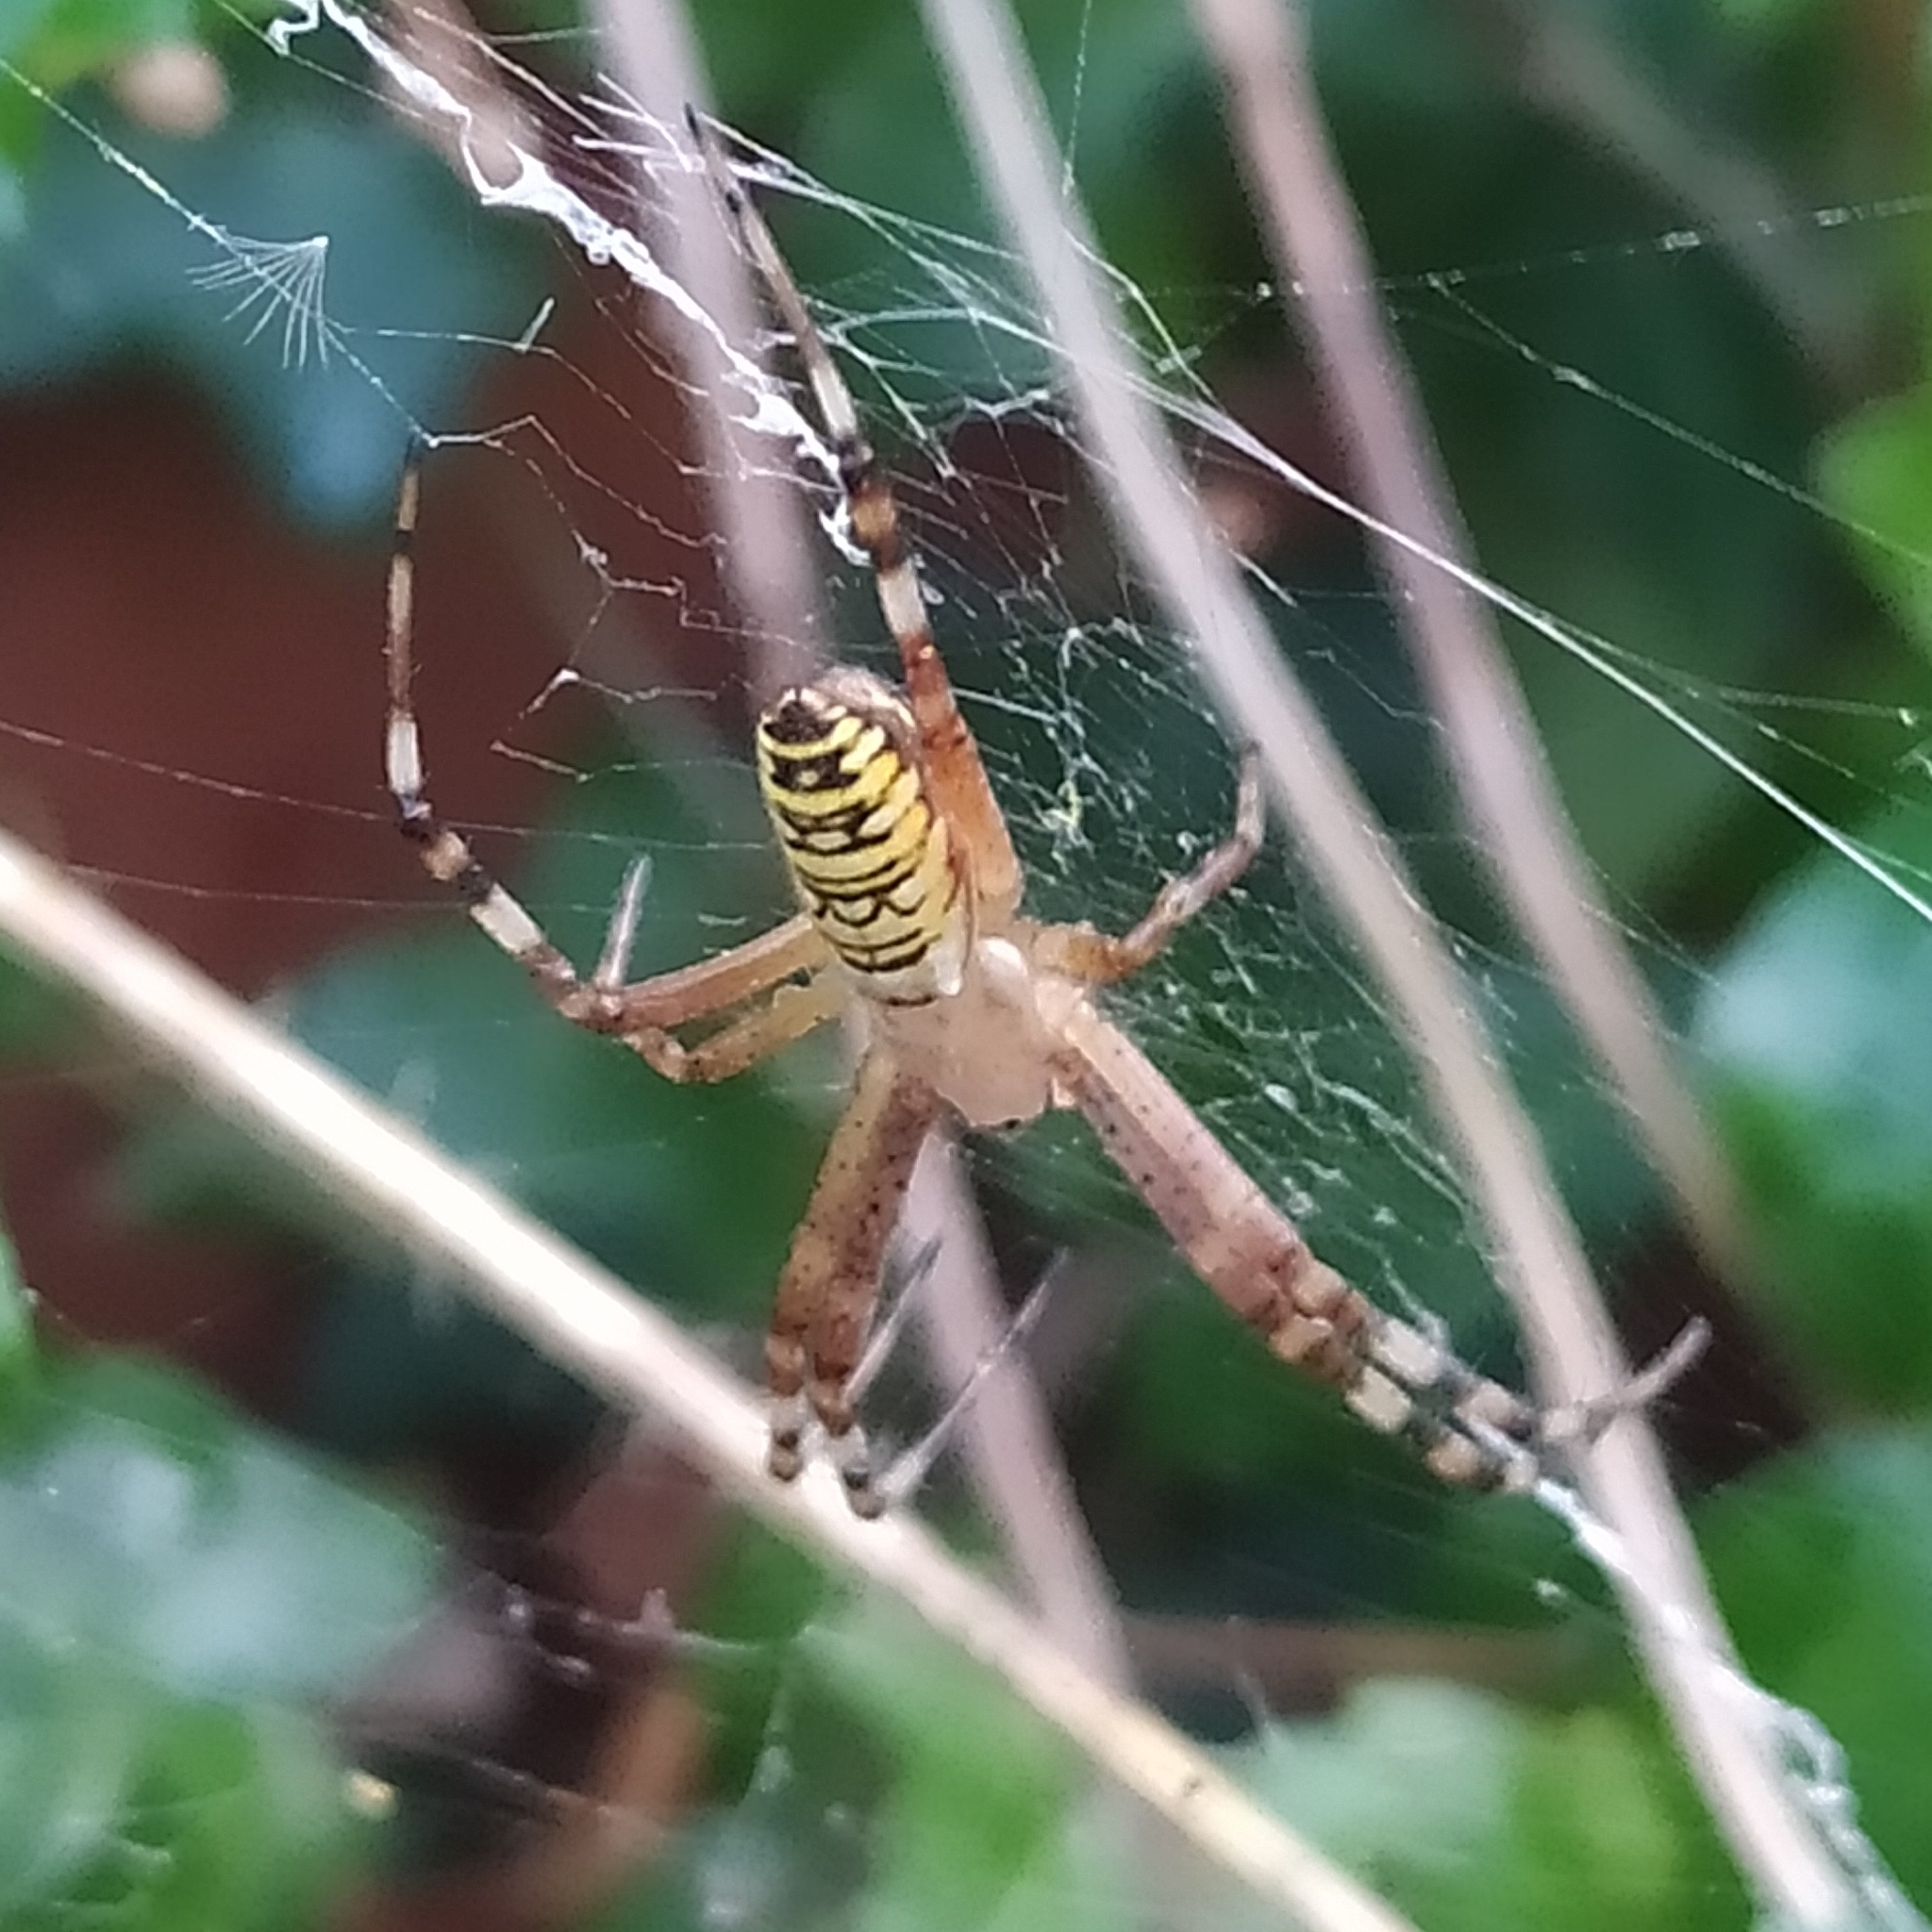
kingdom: Animalia
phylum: Arthropoda
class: Arachnida
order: Araneae
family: Araneidae
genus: Argiope
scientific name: Argiope bruennichi
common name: Wasp spider
